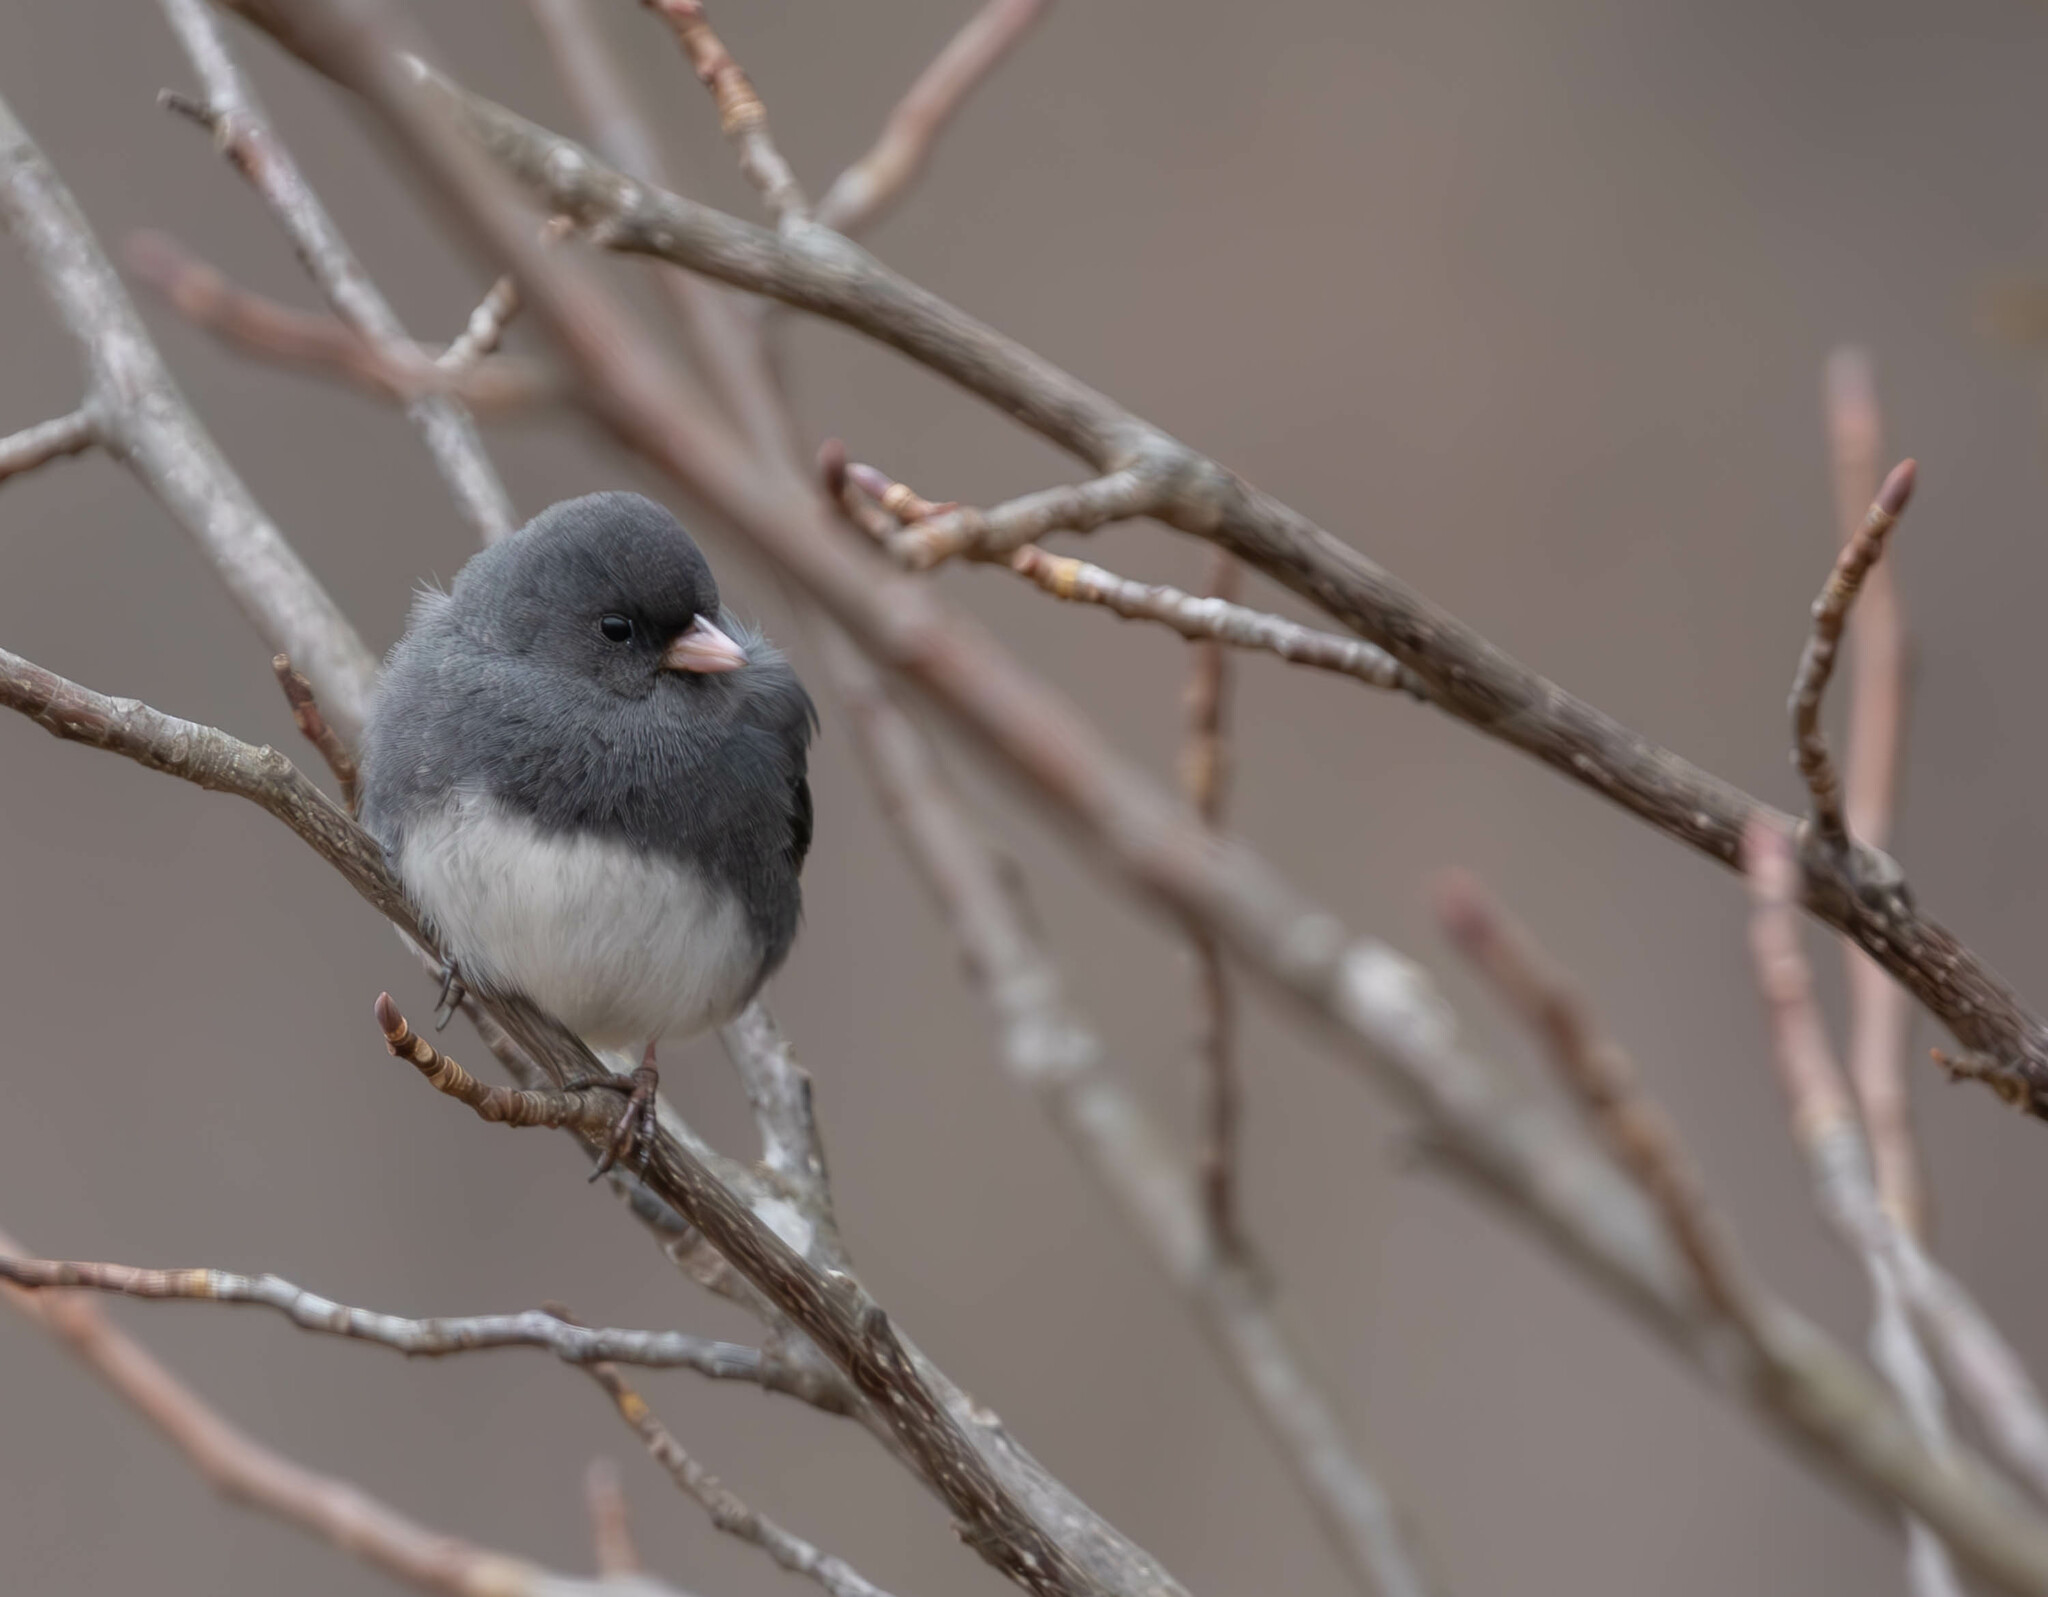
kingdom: Animalia
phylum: Chordata
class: Aves
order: Passeriformes
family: Passerellidae
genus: Junco
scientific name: Junco hyemalis
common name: Dark-eyed junco
